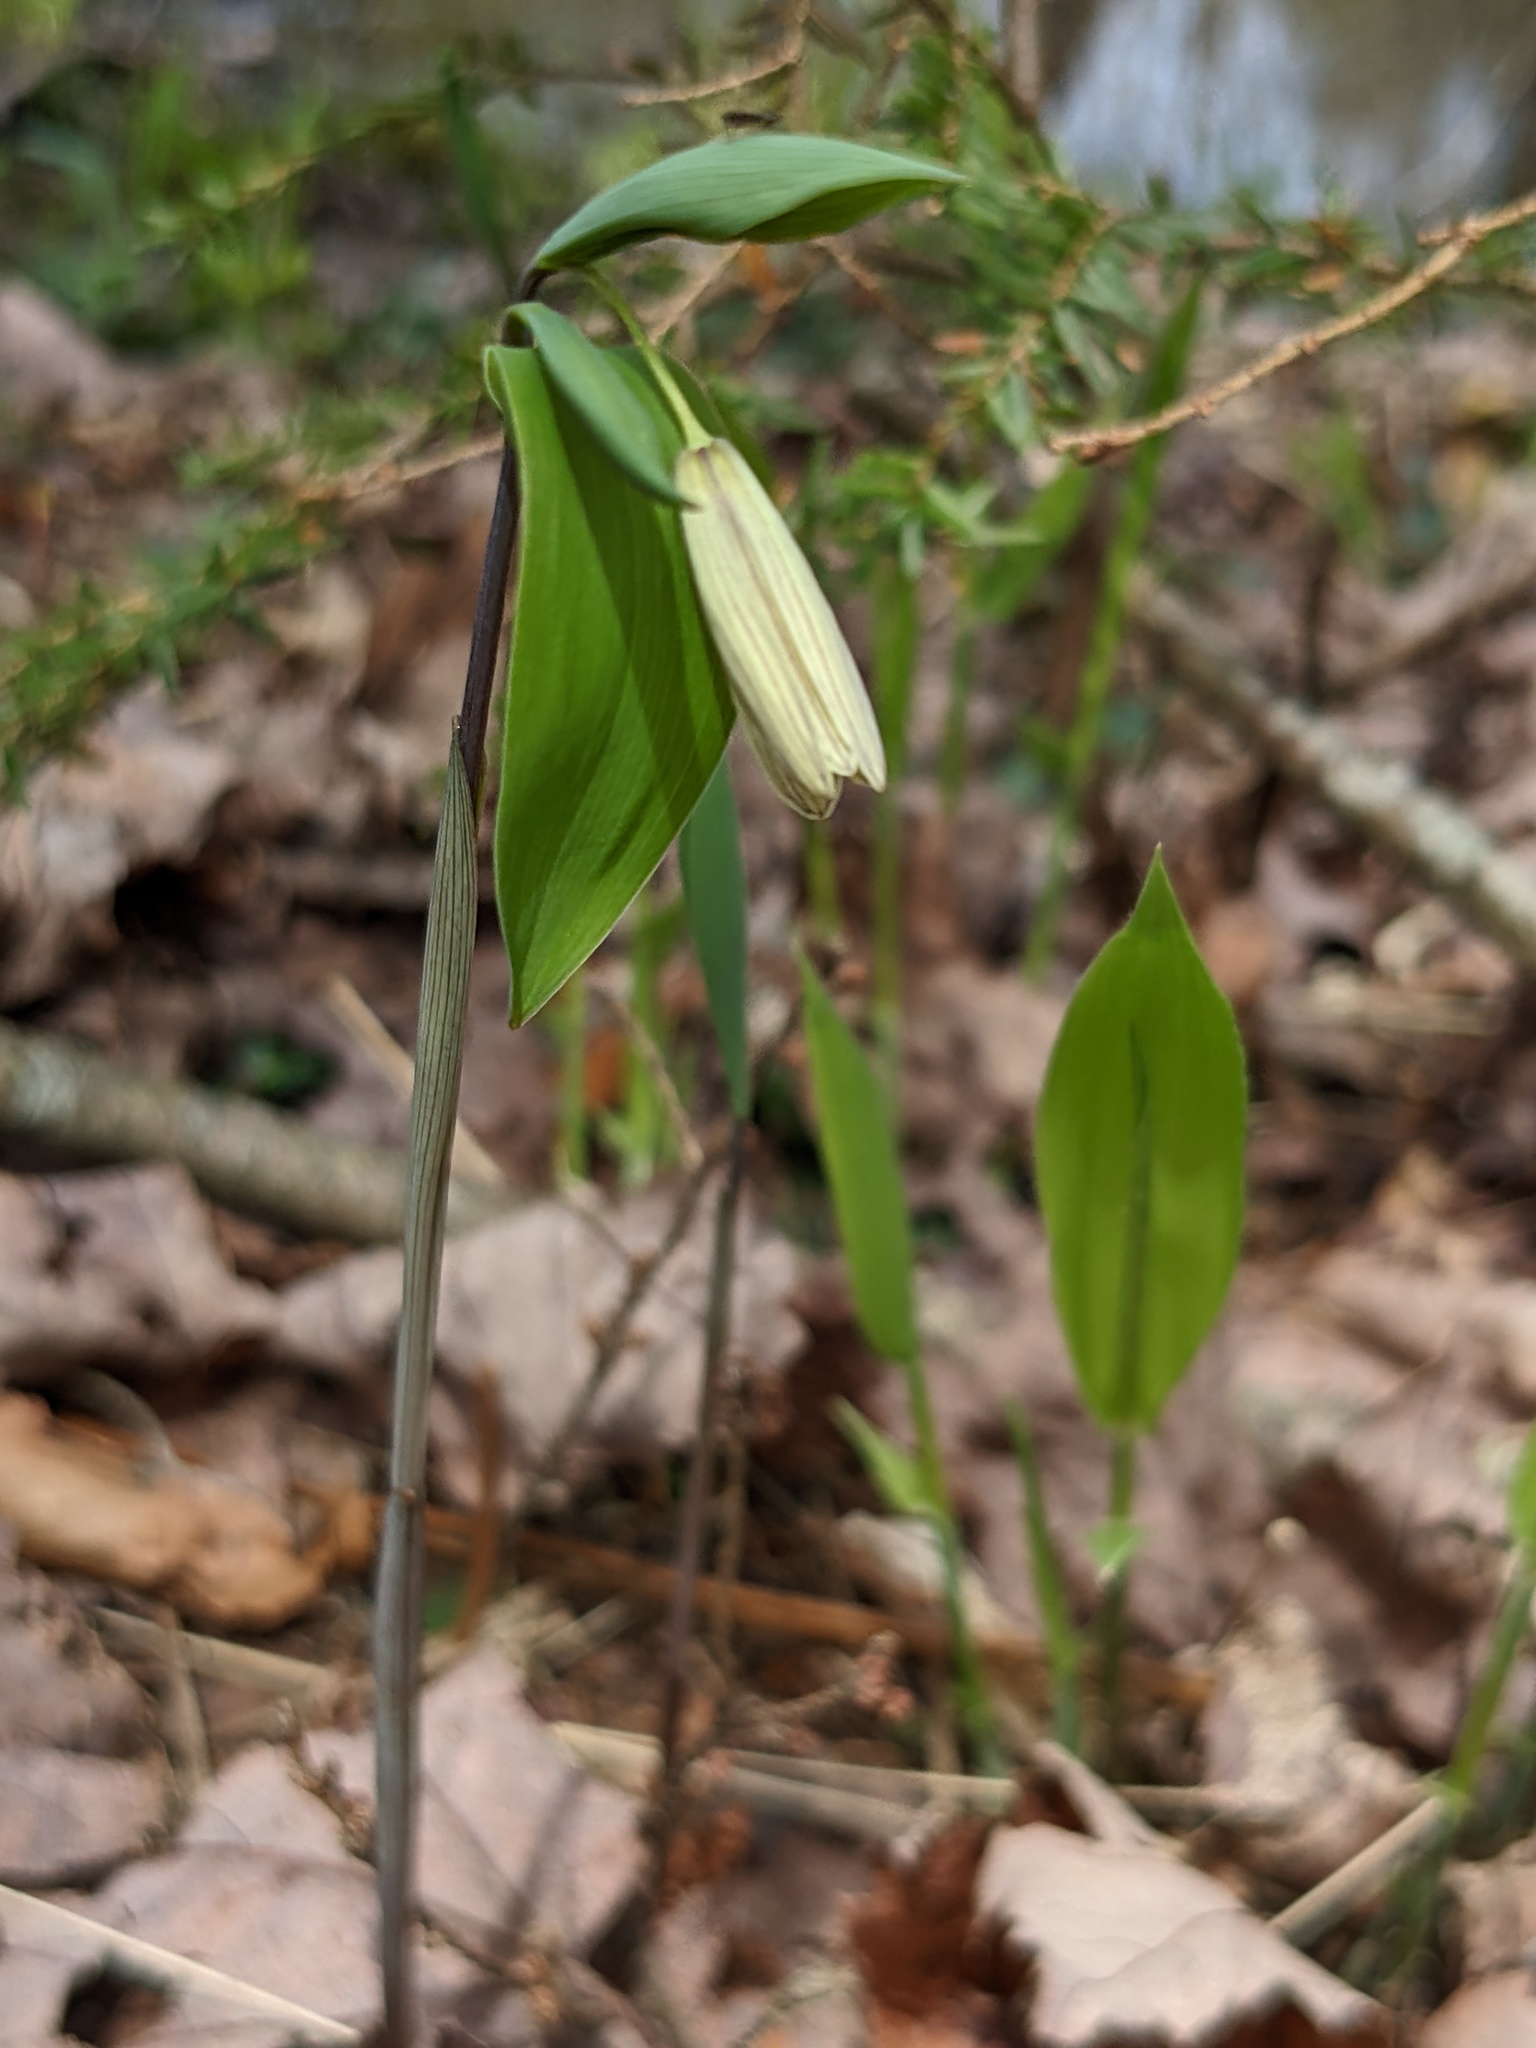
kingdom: Plantae
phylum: Tracheophyta
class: Liliopsida
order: Liliales
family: Colchicaceae
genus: Uvularia
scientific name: Uvularia sessilifolia
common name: Straw-lily
